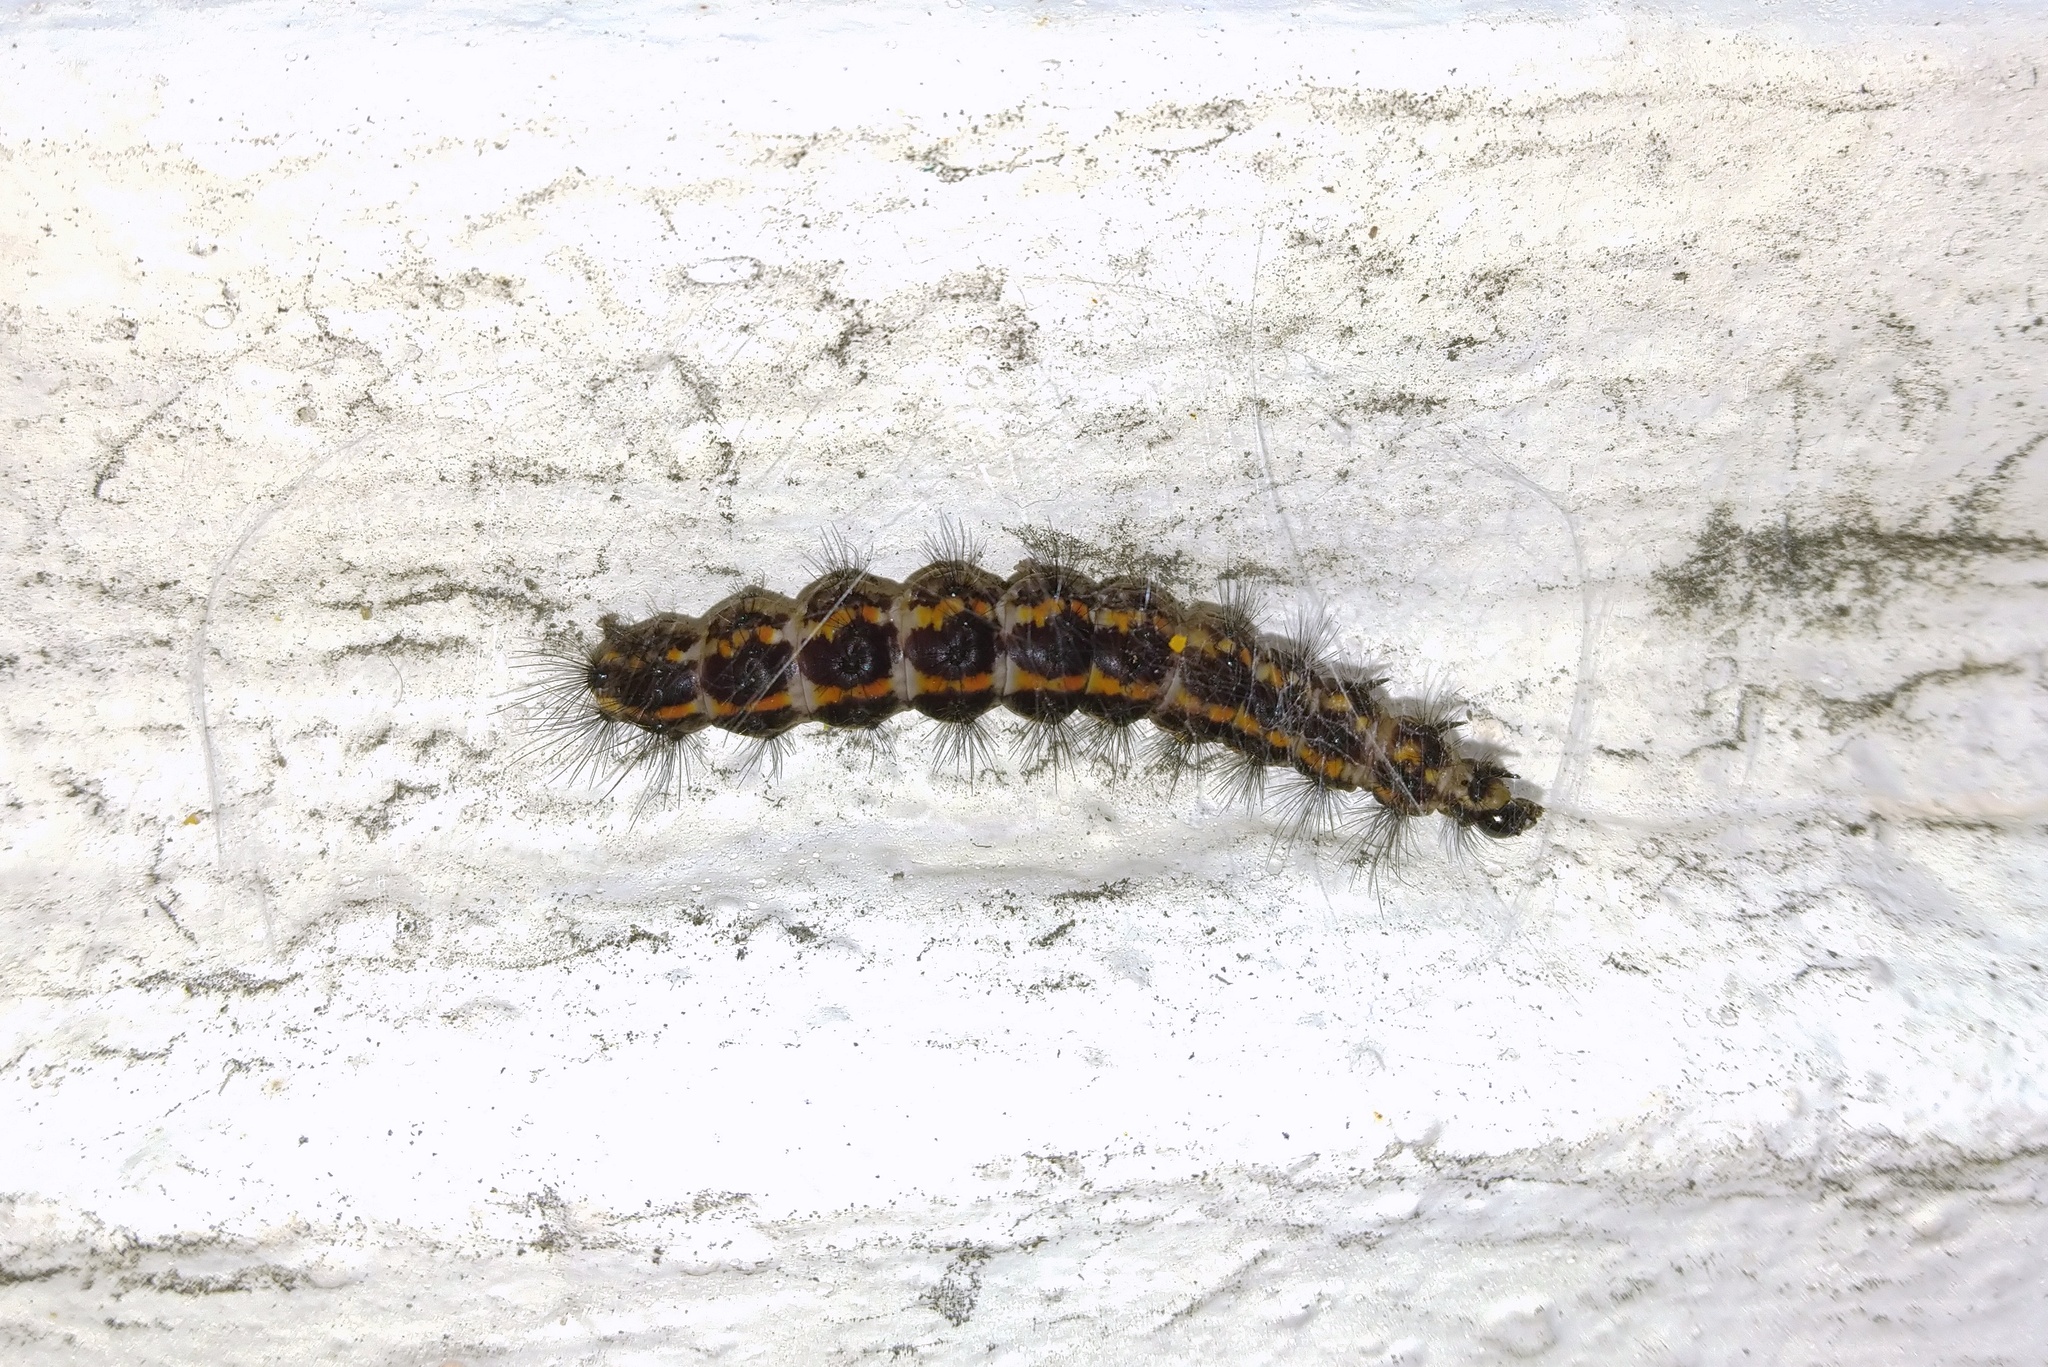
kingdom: Animalia
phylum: Arthropoda
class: Insecta
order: Lepidoptera
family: Erebidae
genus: Nyctemera
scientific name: Nyctemera annulatum
